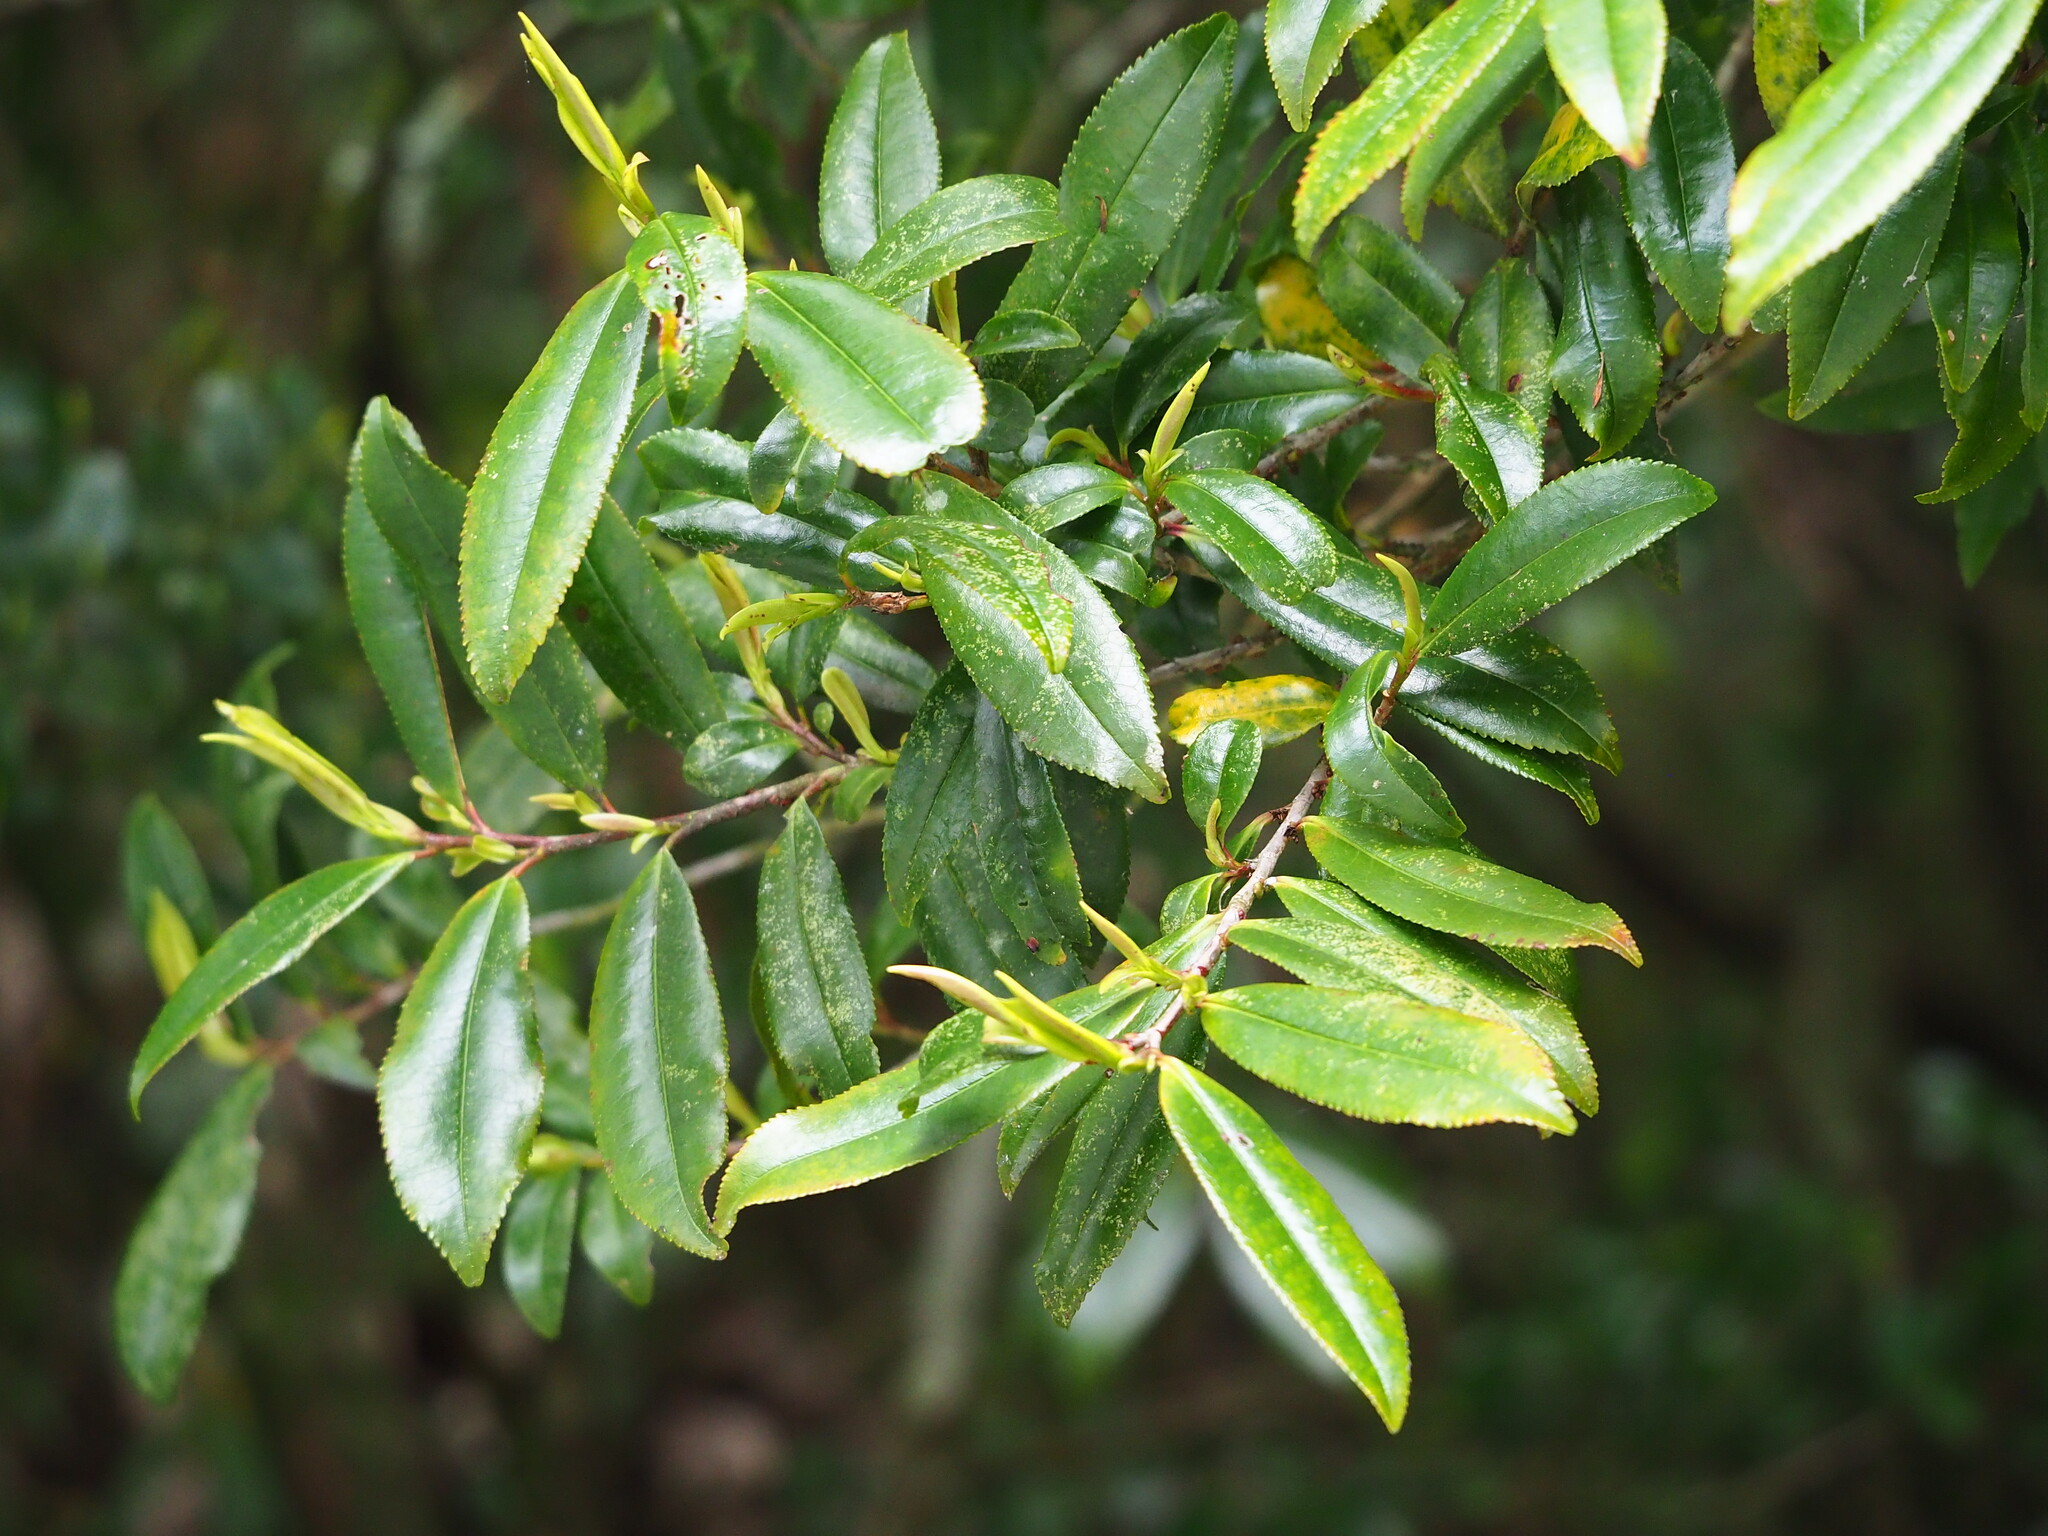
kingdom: Plantae
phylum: Tracheophyta
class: Magnoliopsida
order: Ericales
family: Pentaphylacaceae
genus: Eurya
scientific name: Eurya glaberrima
